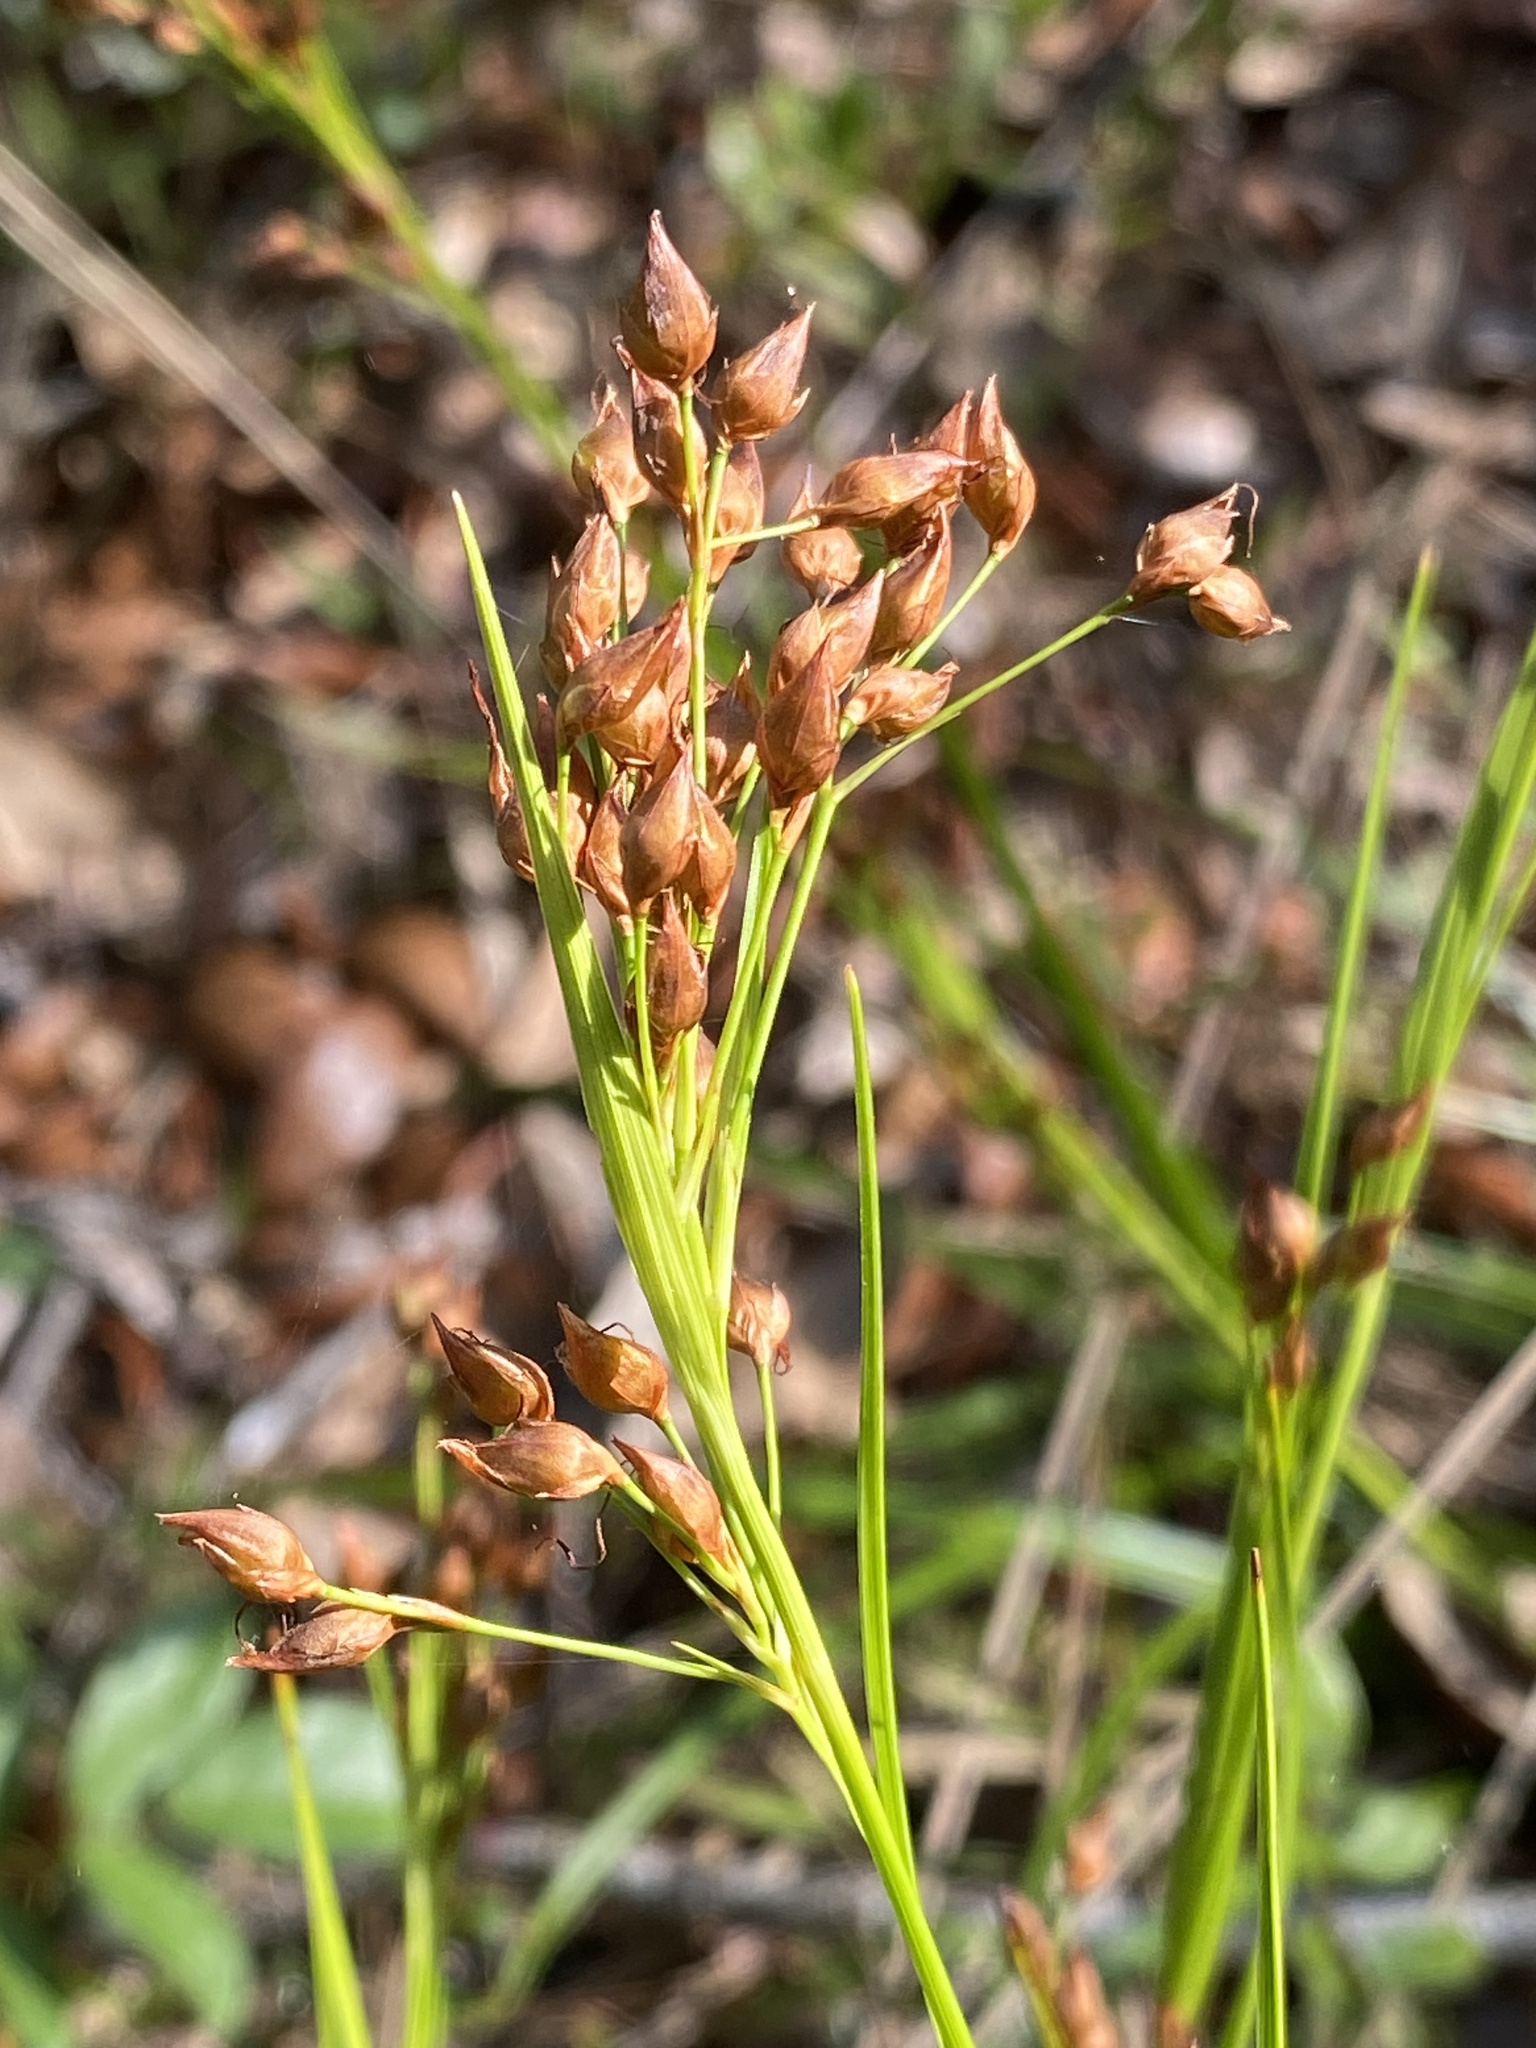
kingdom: Plantae
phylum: Tracheophyta
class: Liliopsida
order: Poales
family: Cyperaceae
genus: Rhynchospora
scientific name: Rhynchospora megalocarpa
